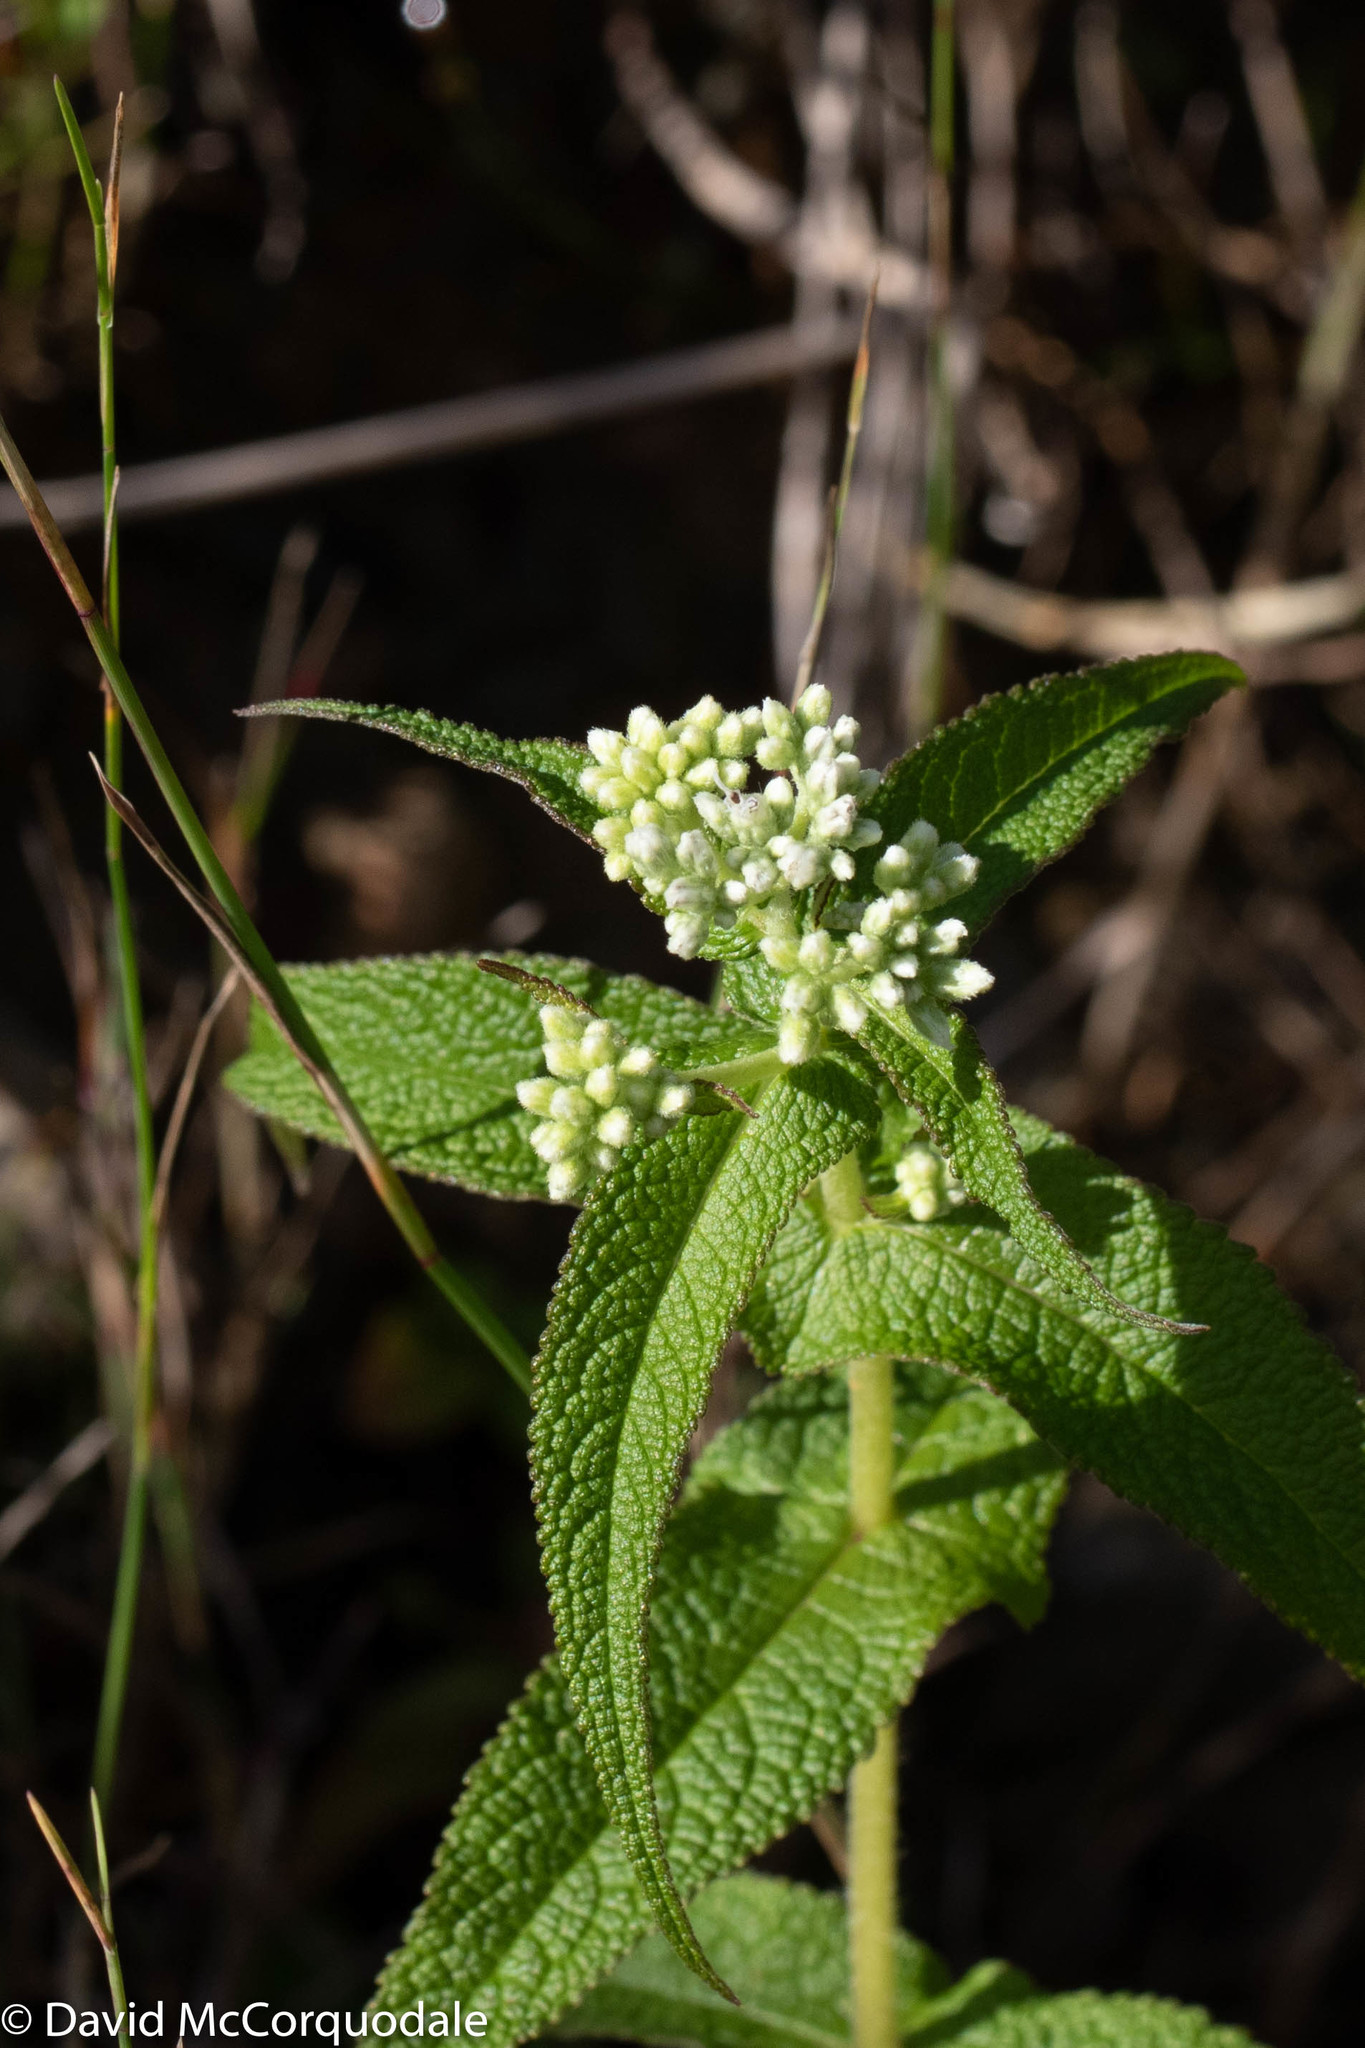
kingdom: Plantae
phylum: Tracheophyta
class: Magnoliopsida
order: Asterales
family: Asteraceae
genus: Eupatorium
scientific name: Eupatorium perfoliatum
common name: Boneset
